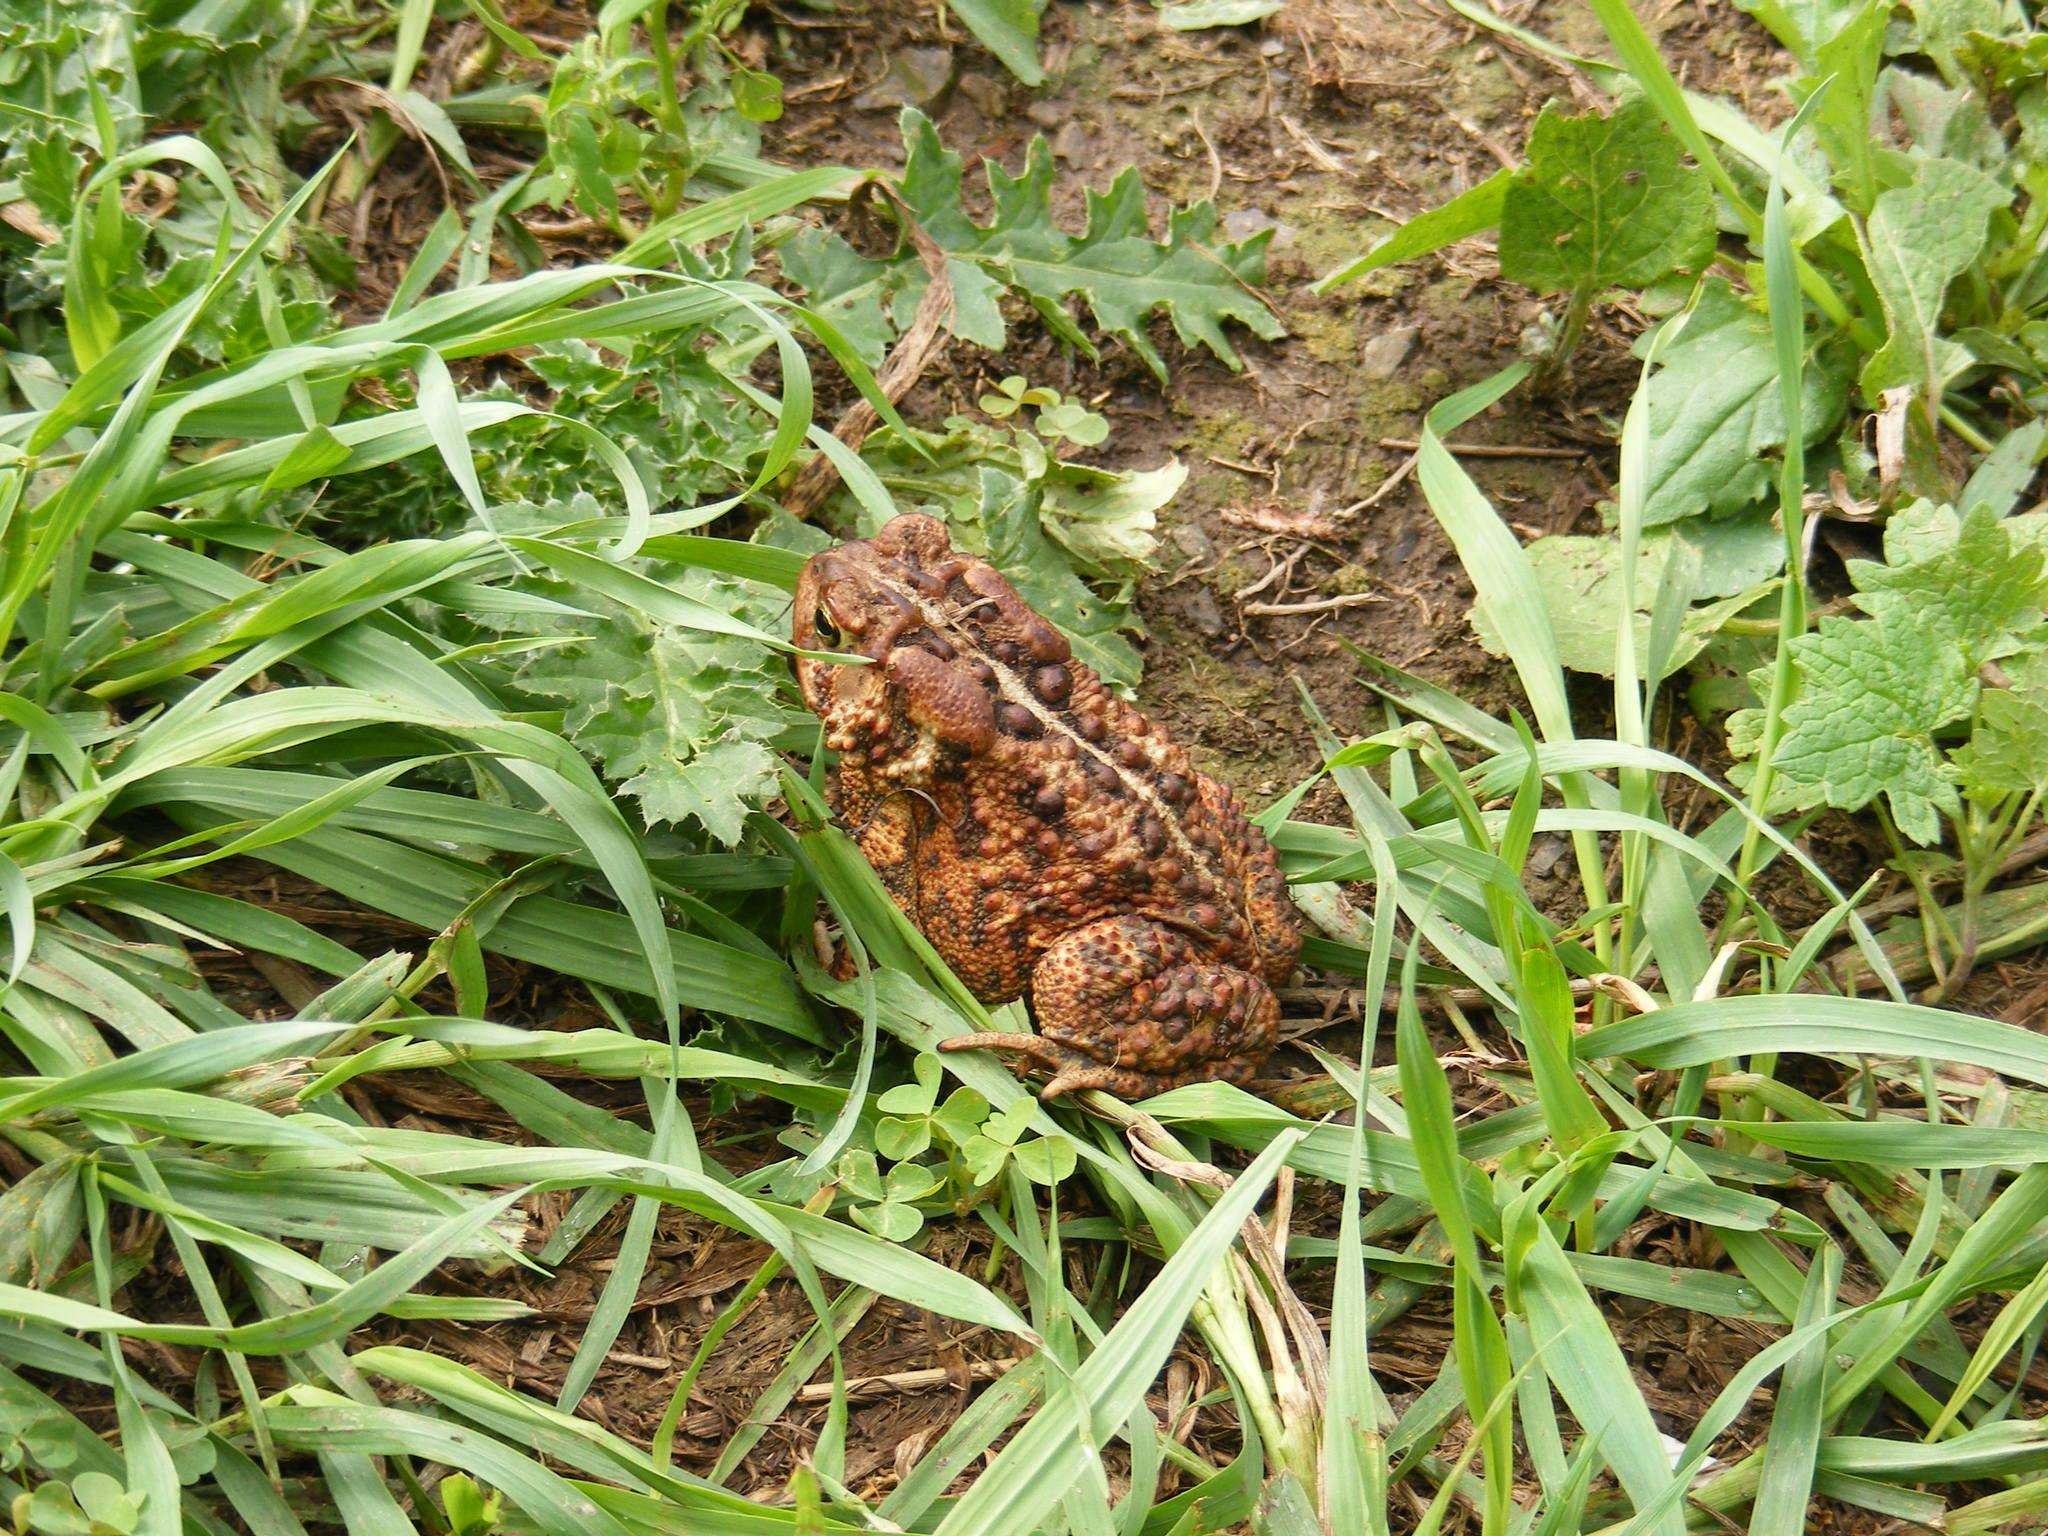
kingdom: Animalia
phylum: Chordata
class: Amphibia
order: Anura
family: Bufonidae
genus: Anaxyrus
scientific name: Anaxyrus americanus
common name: American toad
